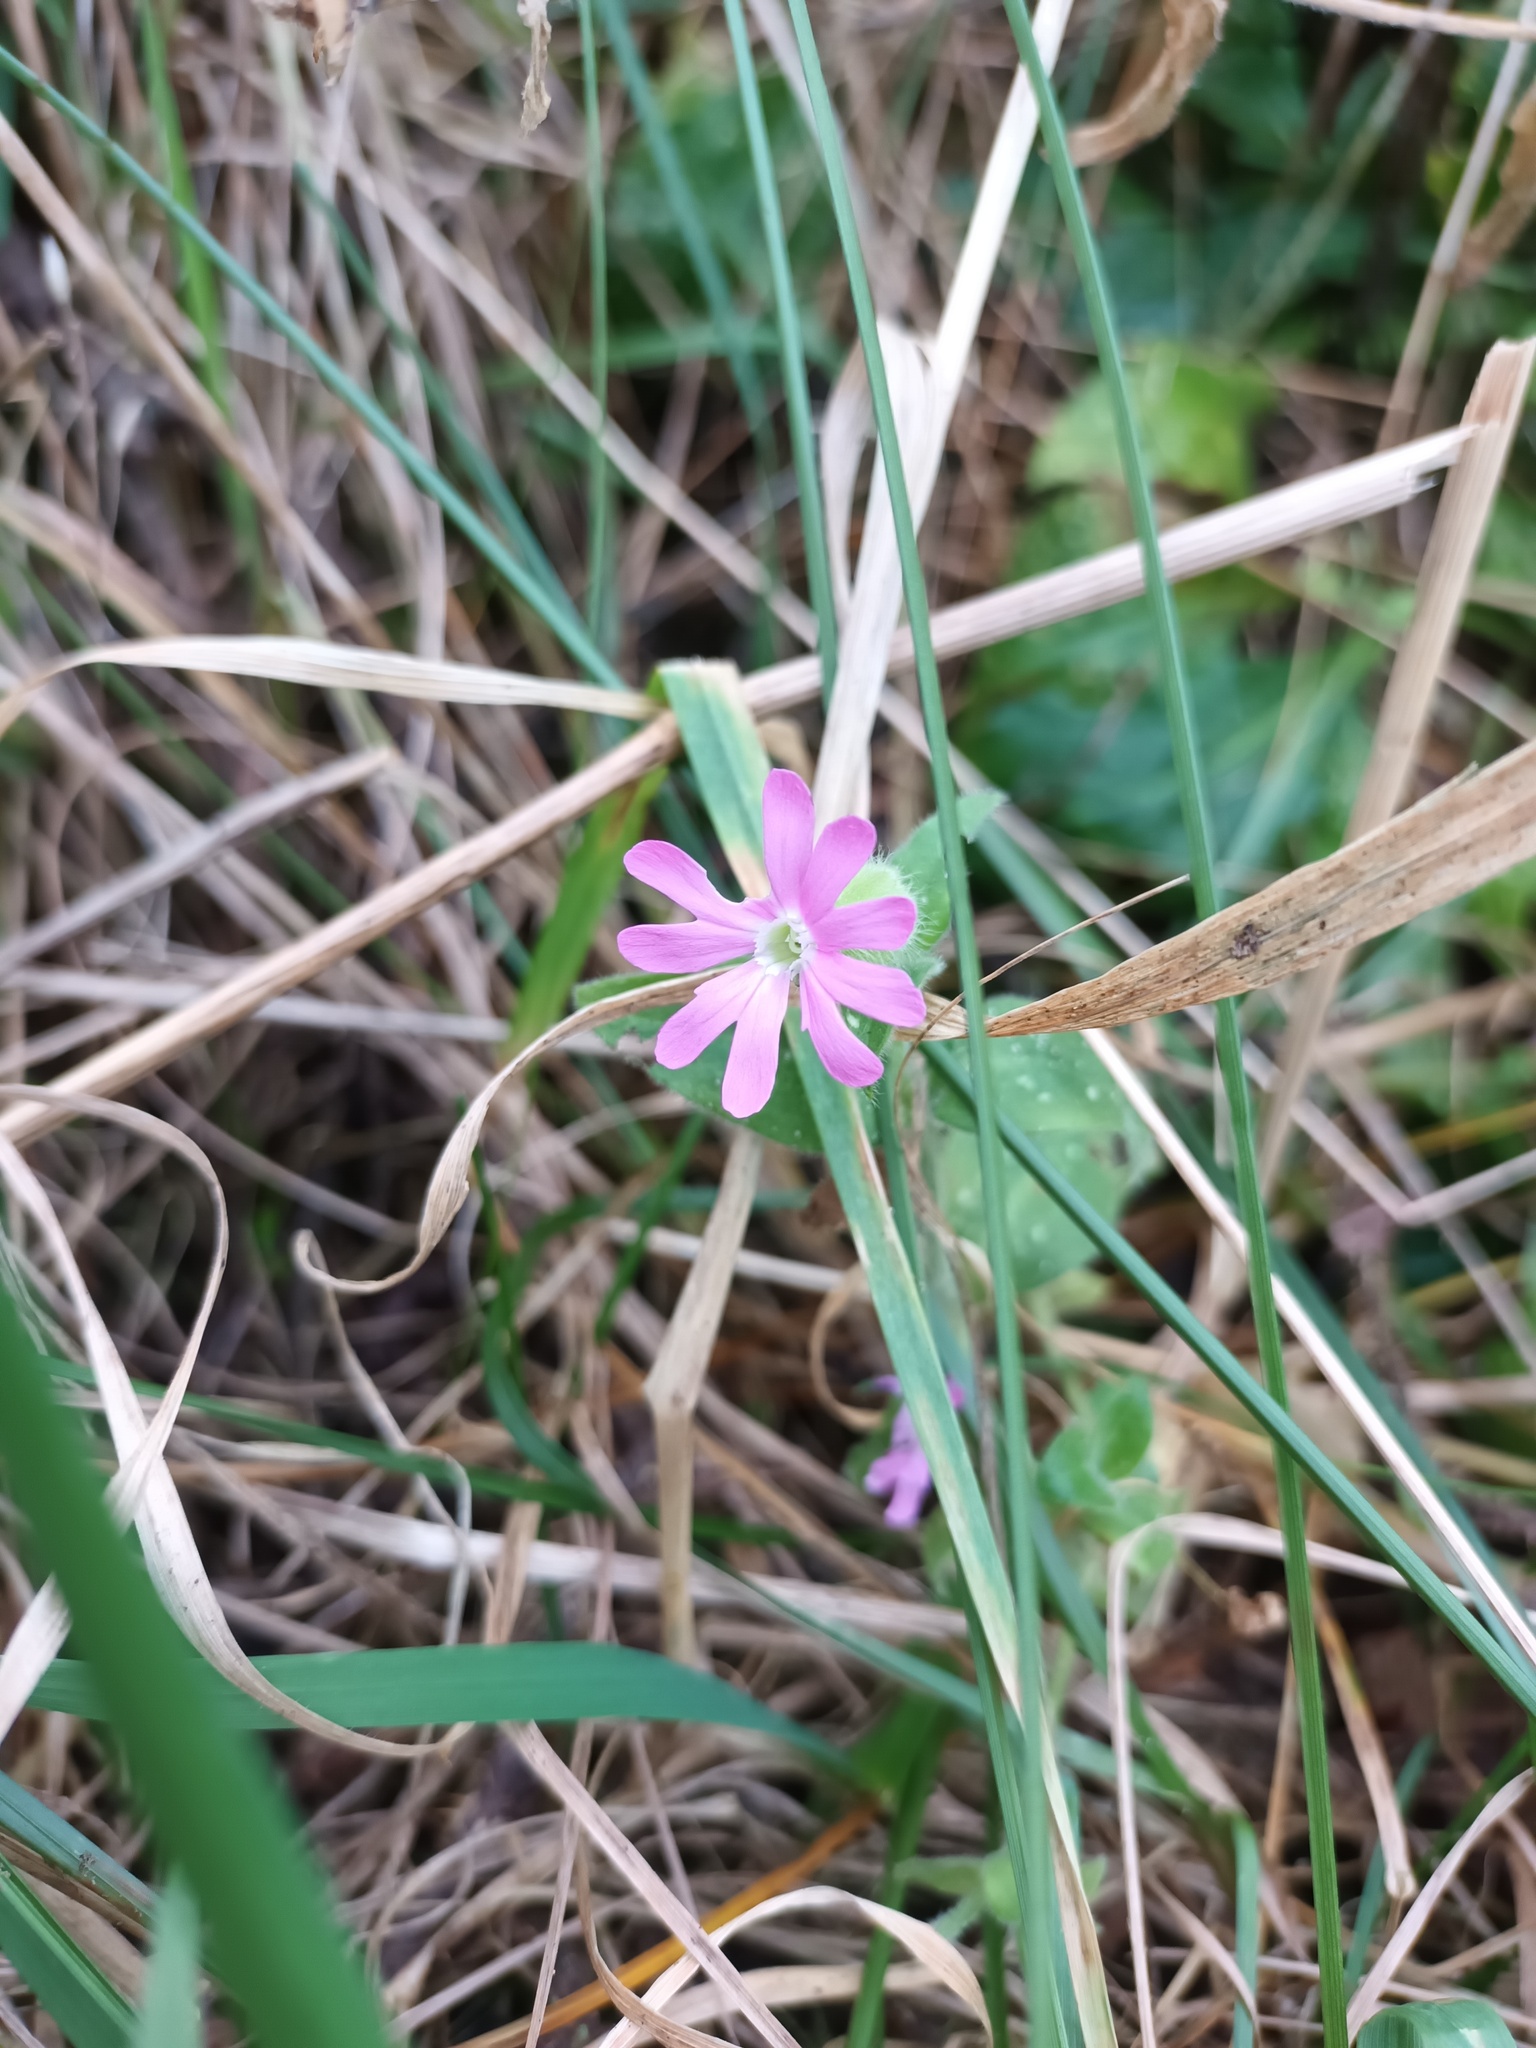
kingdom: Plantae
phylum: Tracheophyta
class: Magnoliopsida
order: Caryophyllales
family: Caryophyllaceae
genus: Silene
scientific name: Silene dioica
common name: Red campion
